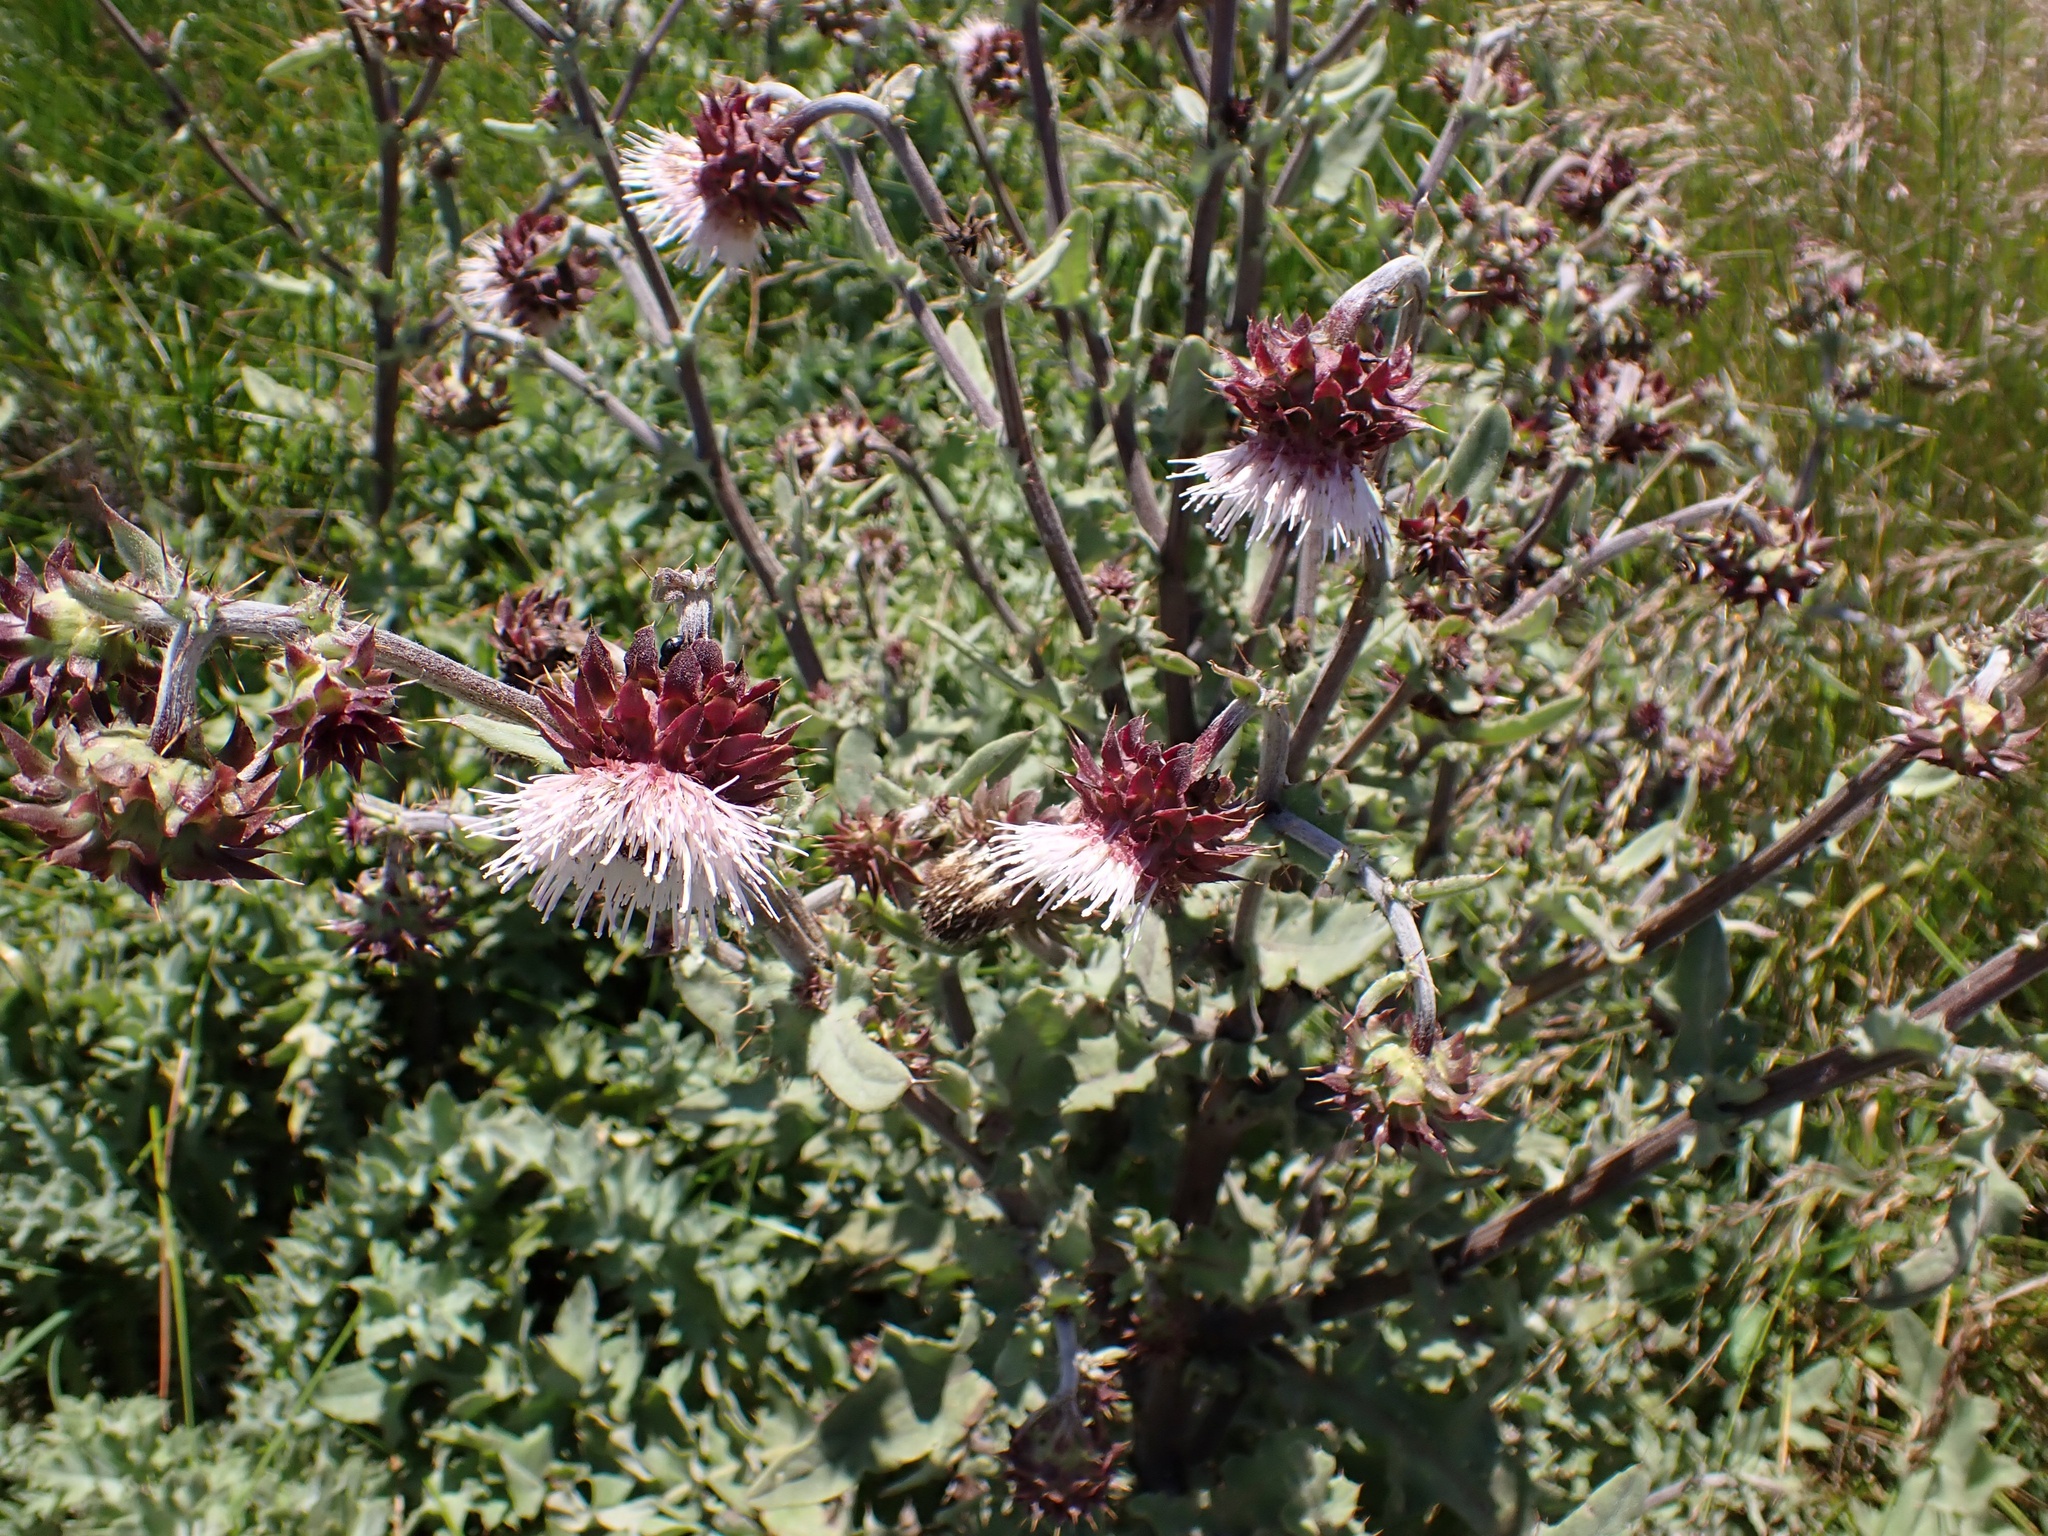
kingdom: Plantae
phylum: Tracheophyta
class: Magnoliopsida
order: Asterales
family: Asteraceae
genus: Cirsium
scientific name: Cirsium fontinale
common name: Fountain thistle
